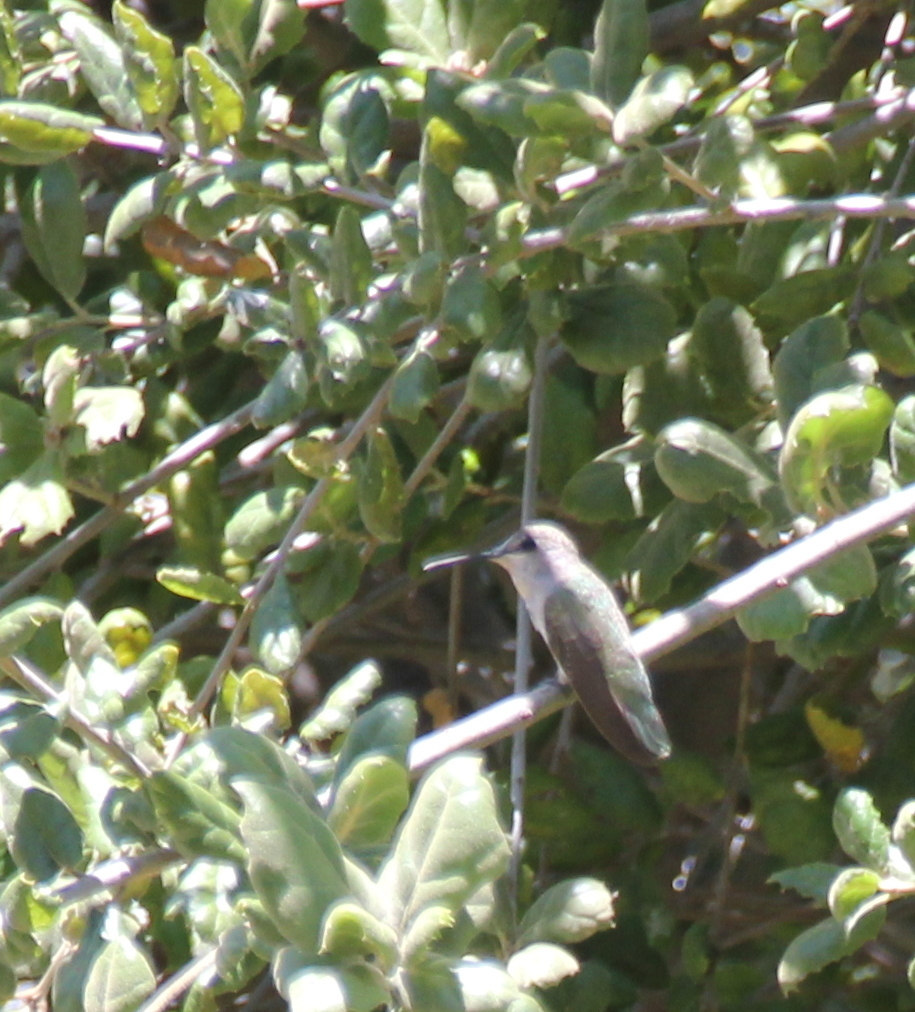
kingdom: Animalia
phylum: Chordata
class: Aves
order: Apodiformes
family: Trochilidae
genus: Calypte
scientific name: Calypte costae
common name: Costa's hummingbird
